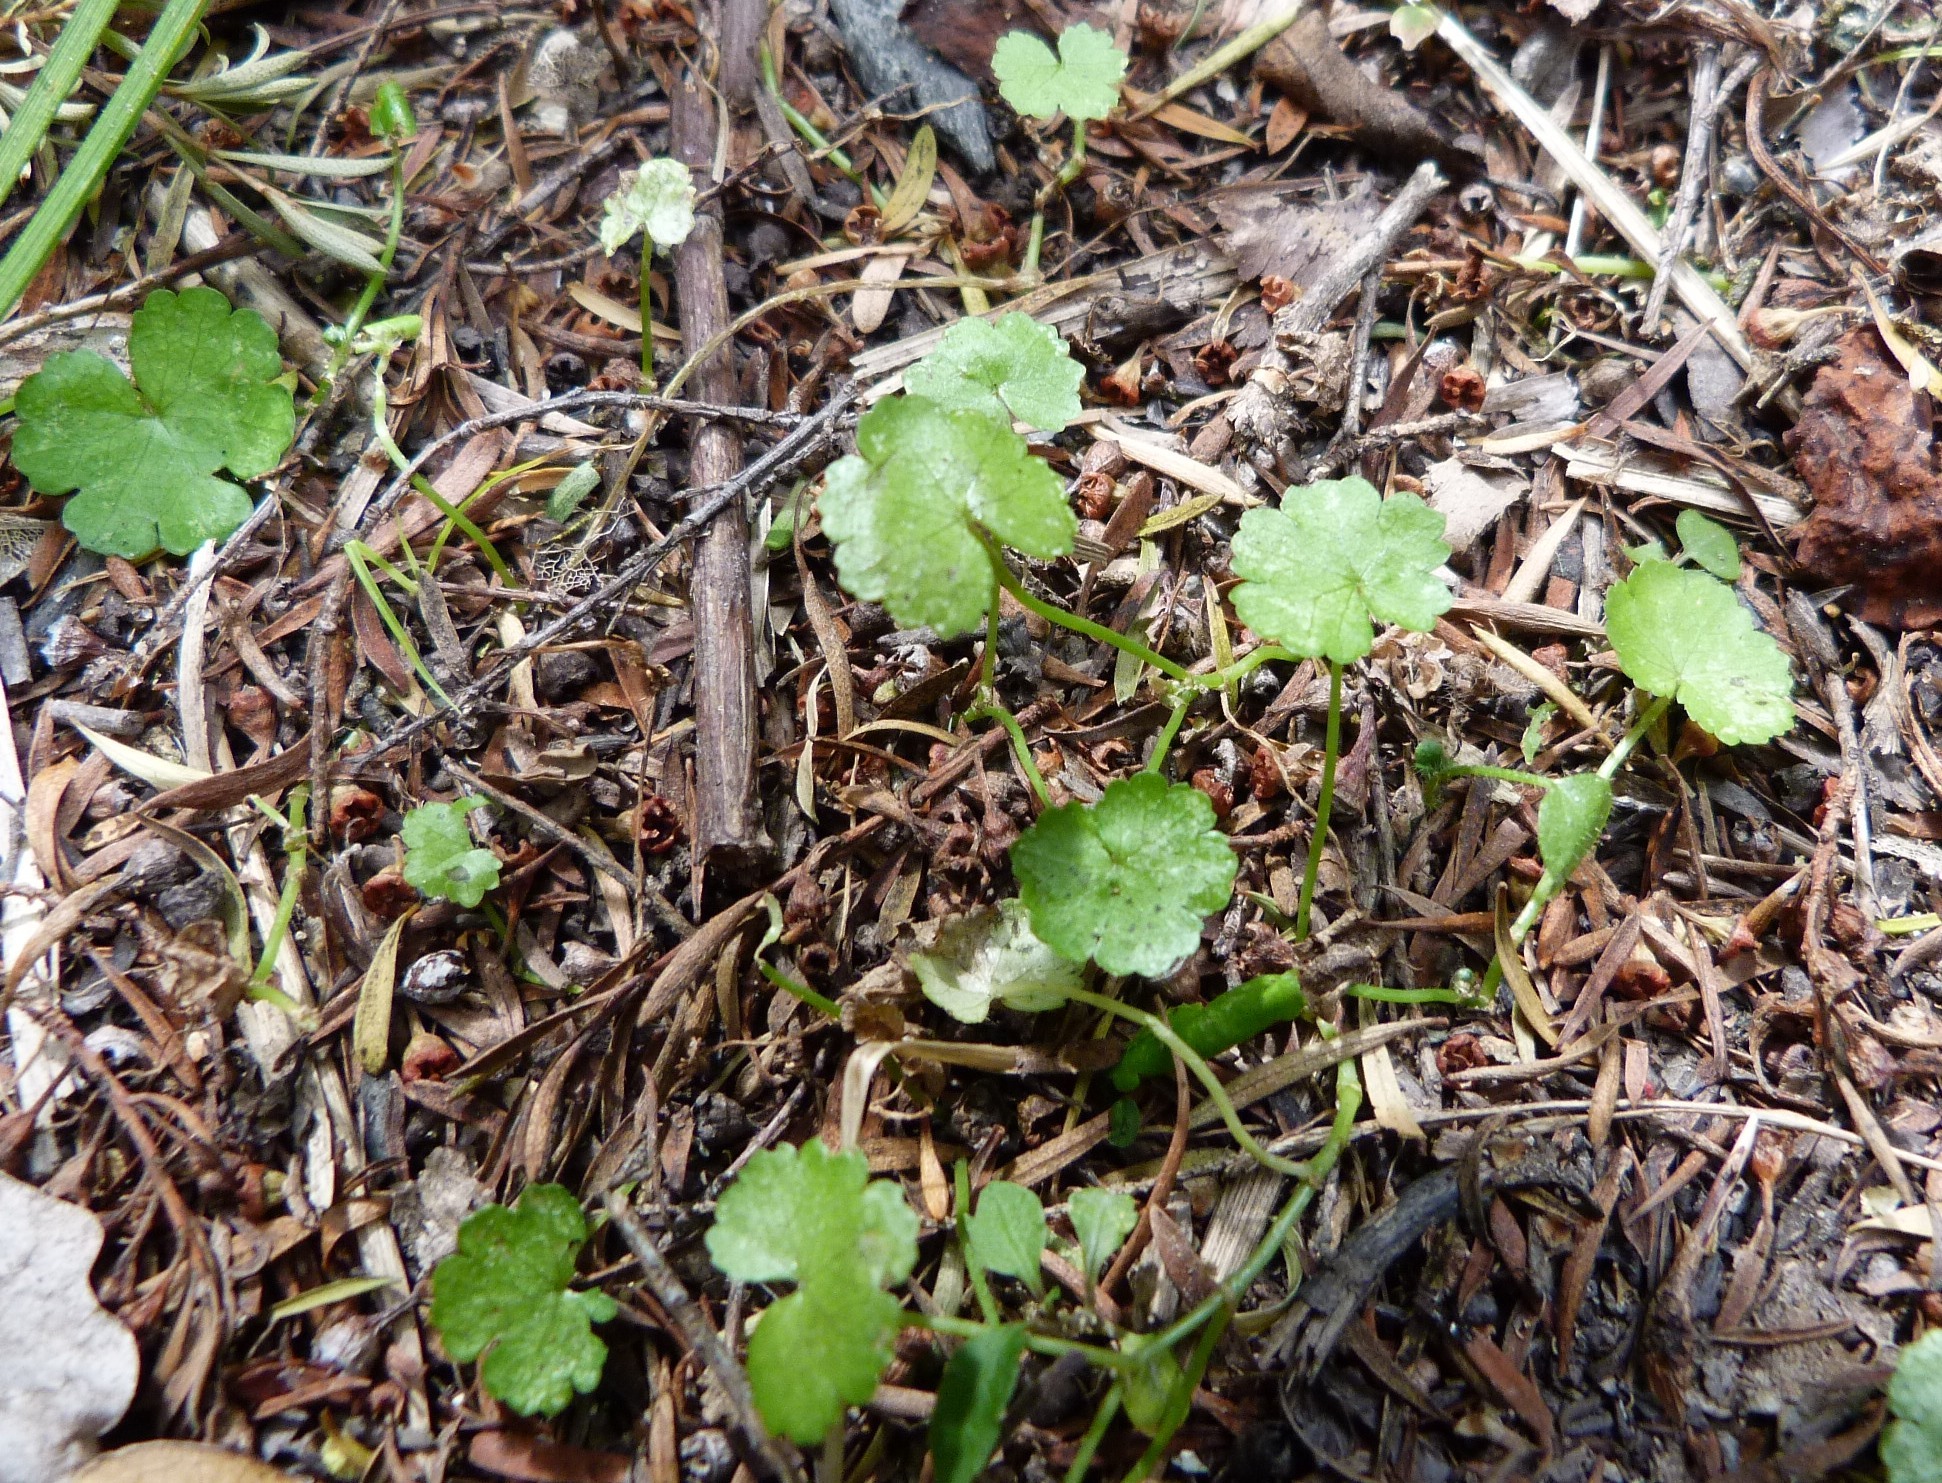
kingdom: Plantae
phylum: Tracheophyta
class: Magnoliopsida
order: Apiales
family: Araliaceae
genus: Hydrocotyle
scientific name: Hydrocotyle heteromeria
